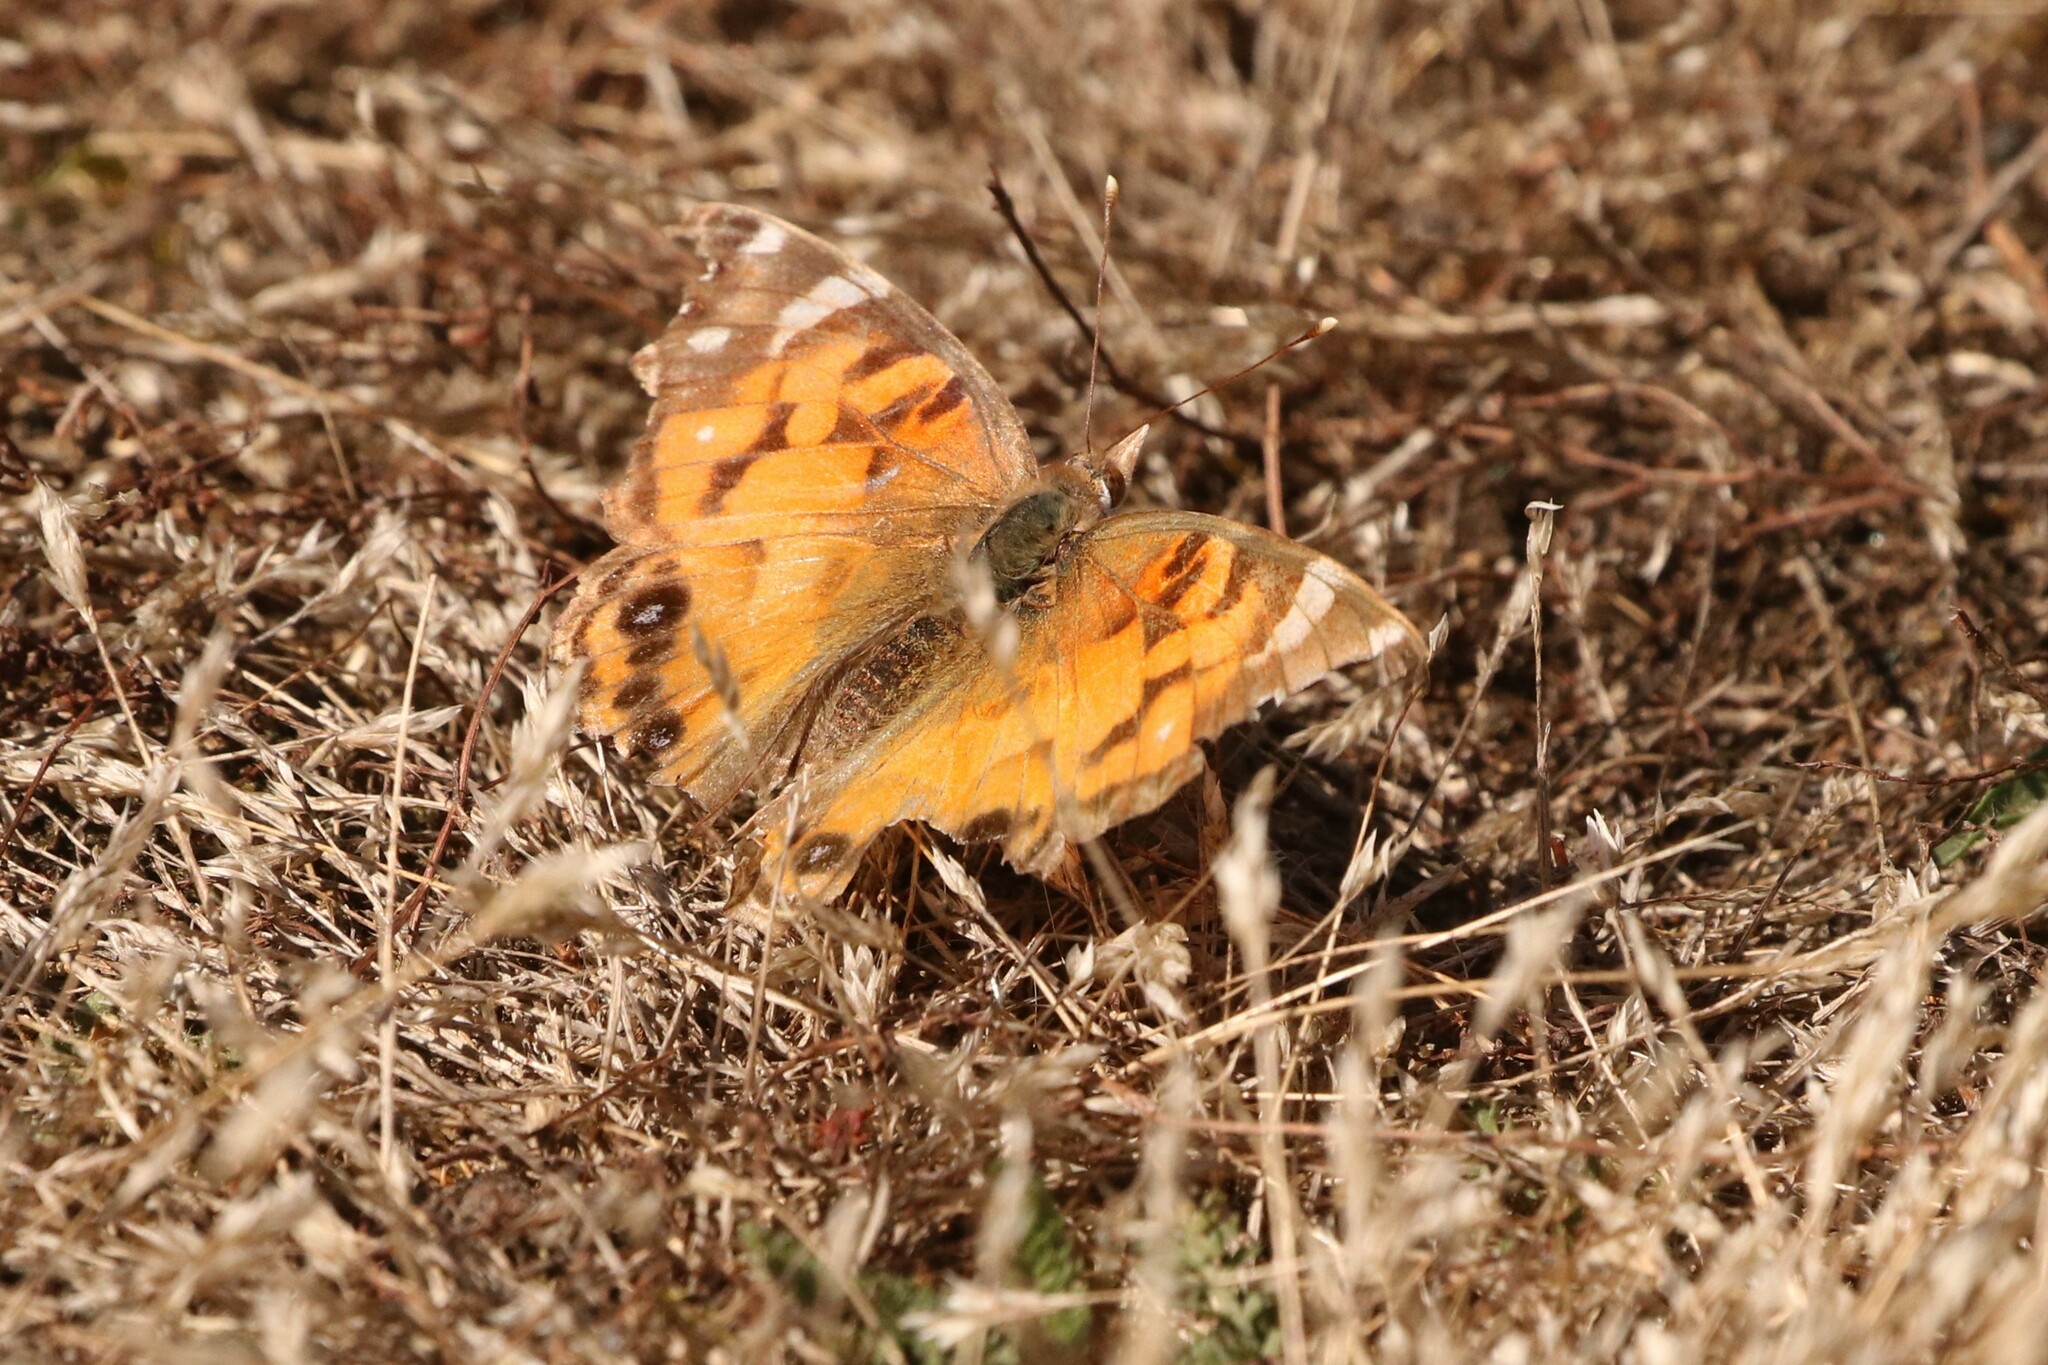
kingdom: Animalia
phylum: Arthropoda
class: Insecta
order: Lepidoptera
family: Nymphalidae
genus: Vanessa
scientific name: Vanessa virginiensis
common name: American lady
